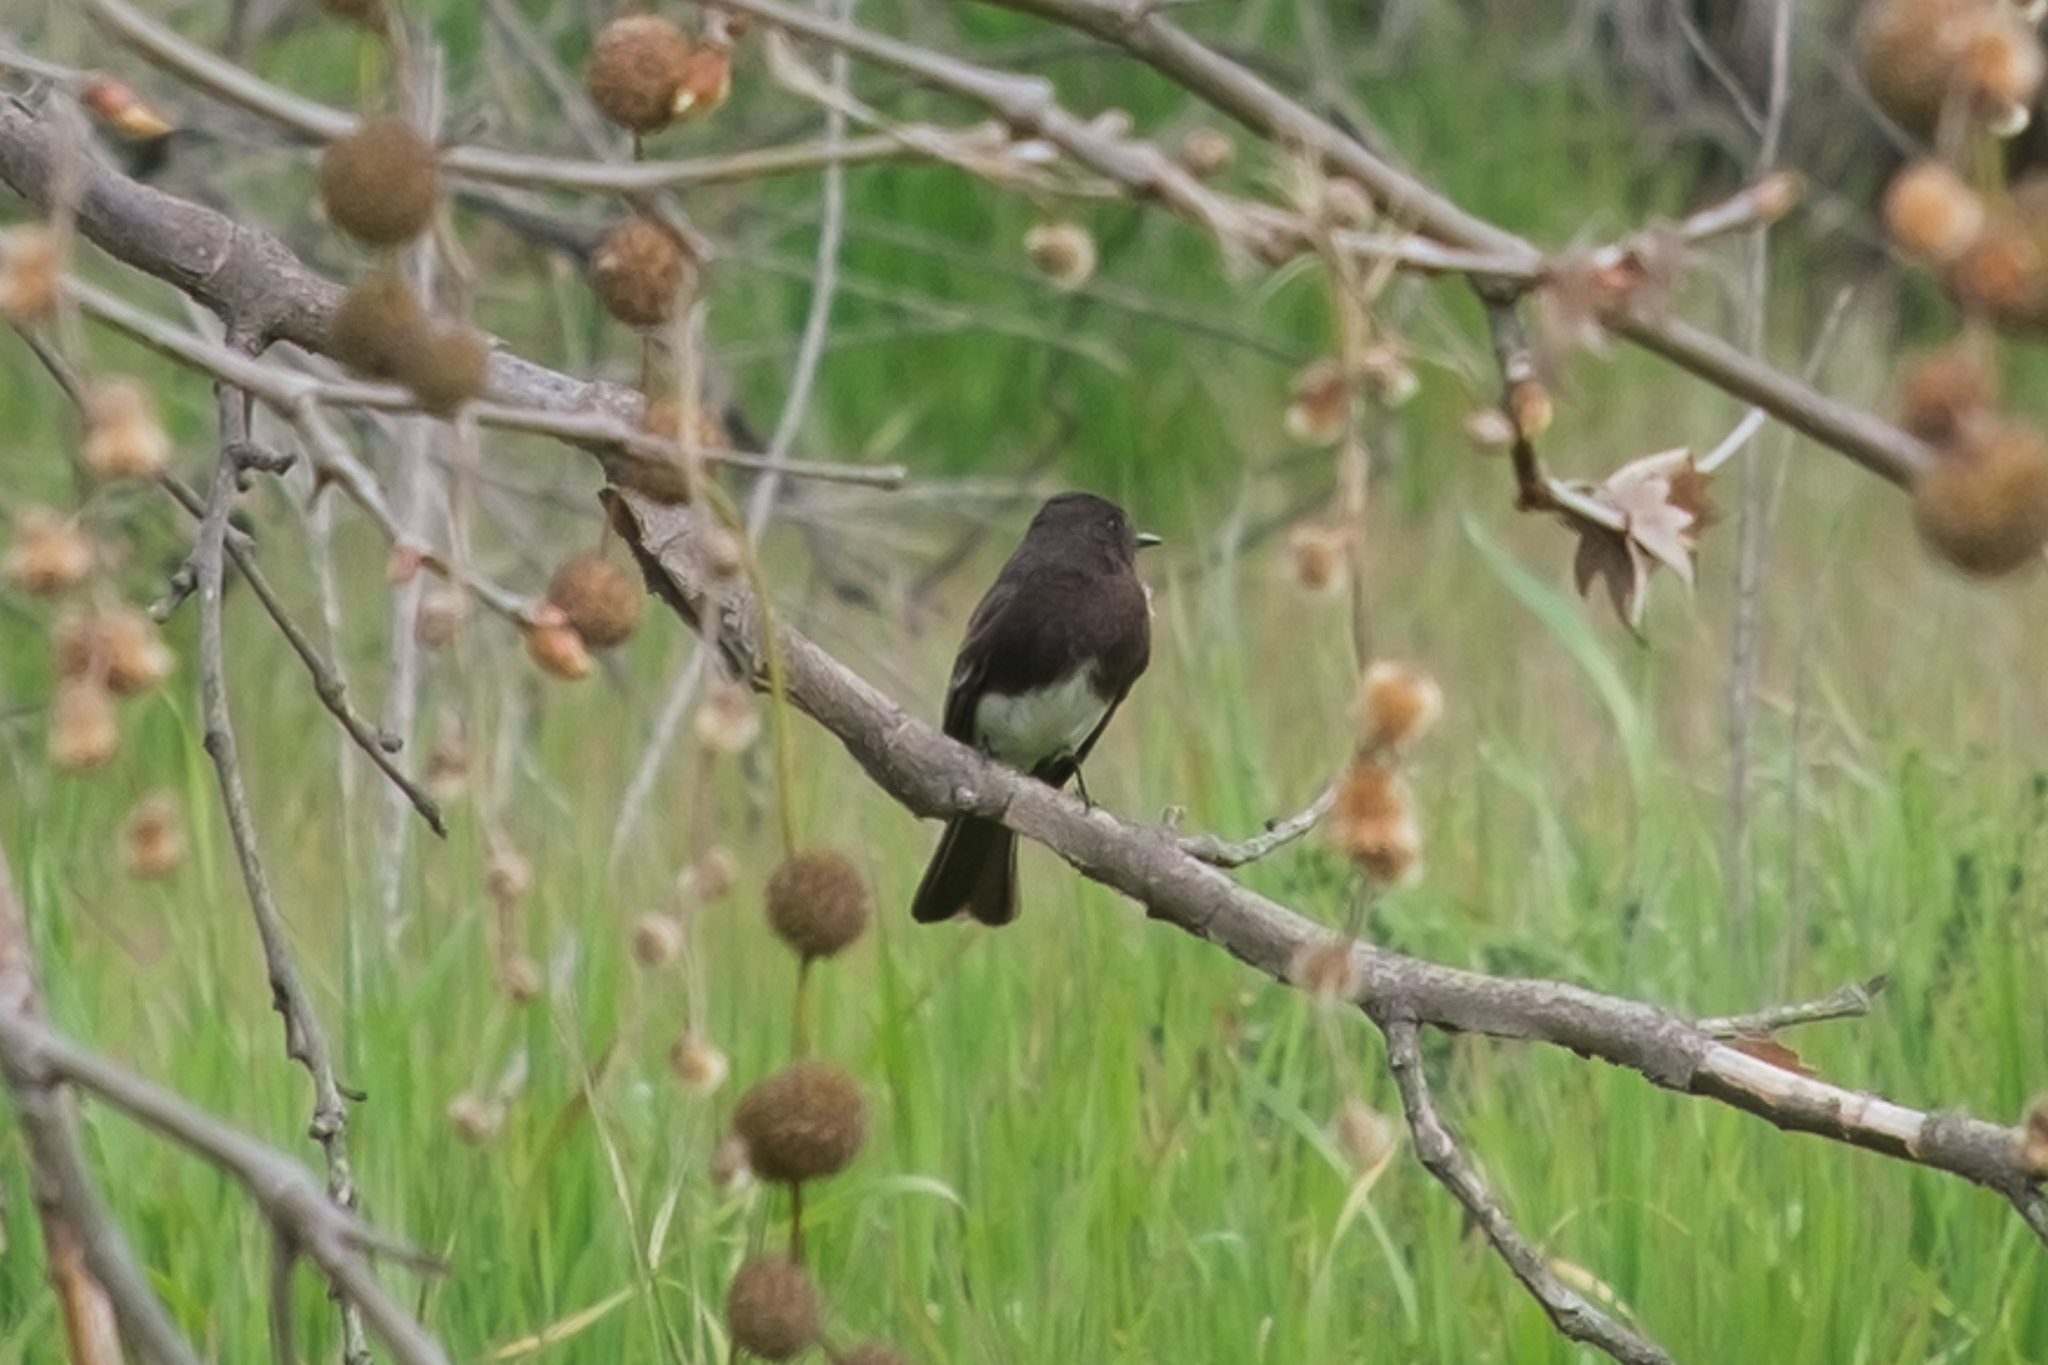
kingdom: Animalia
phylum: Chordata
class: Aves
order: Passeriformes
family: Tyrannidae
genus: Sayornis
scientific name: Sayornis nigricans
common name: Black phoebe
